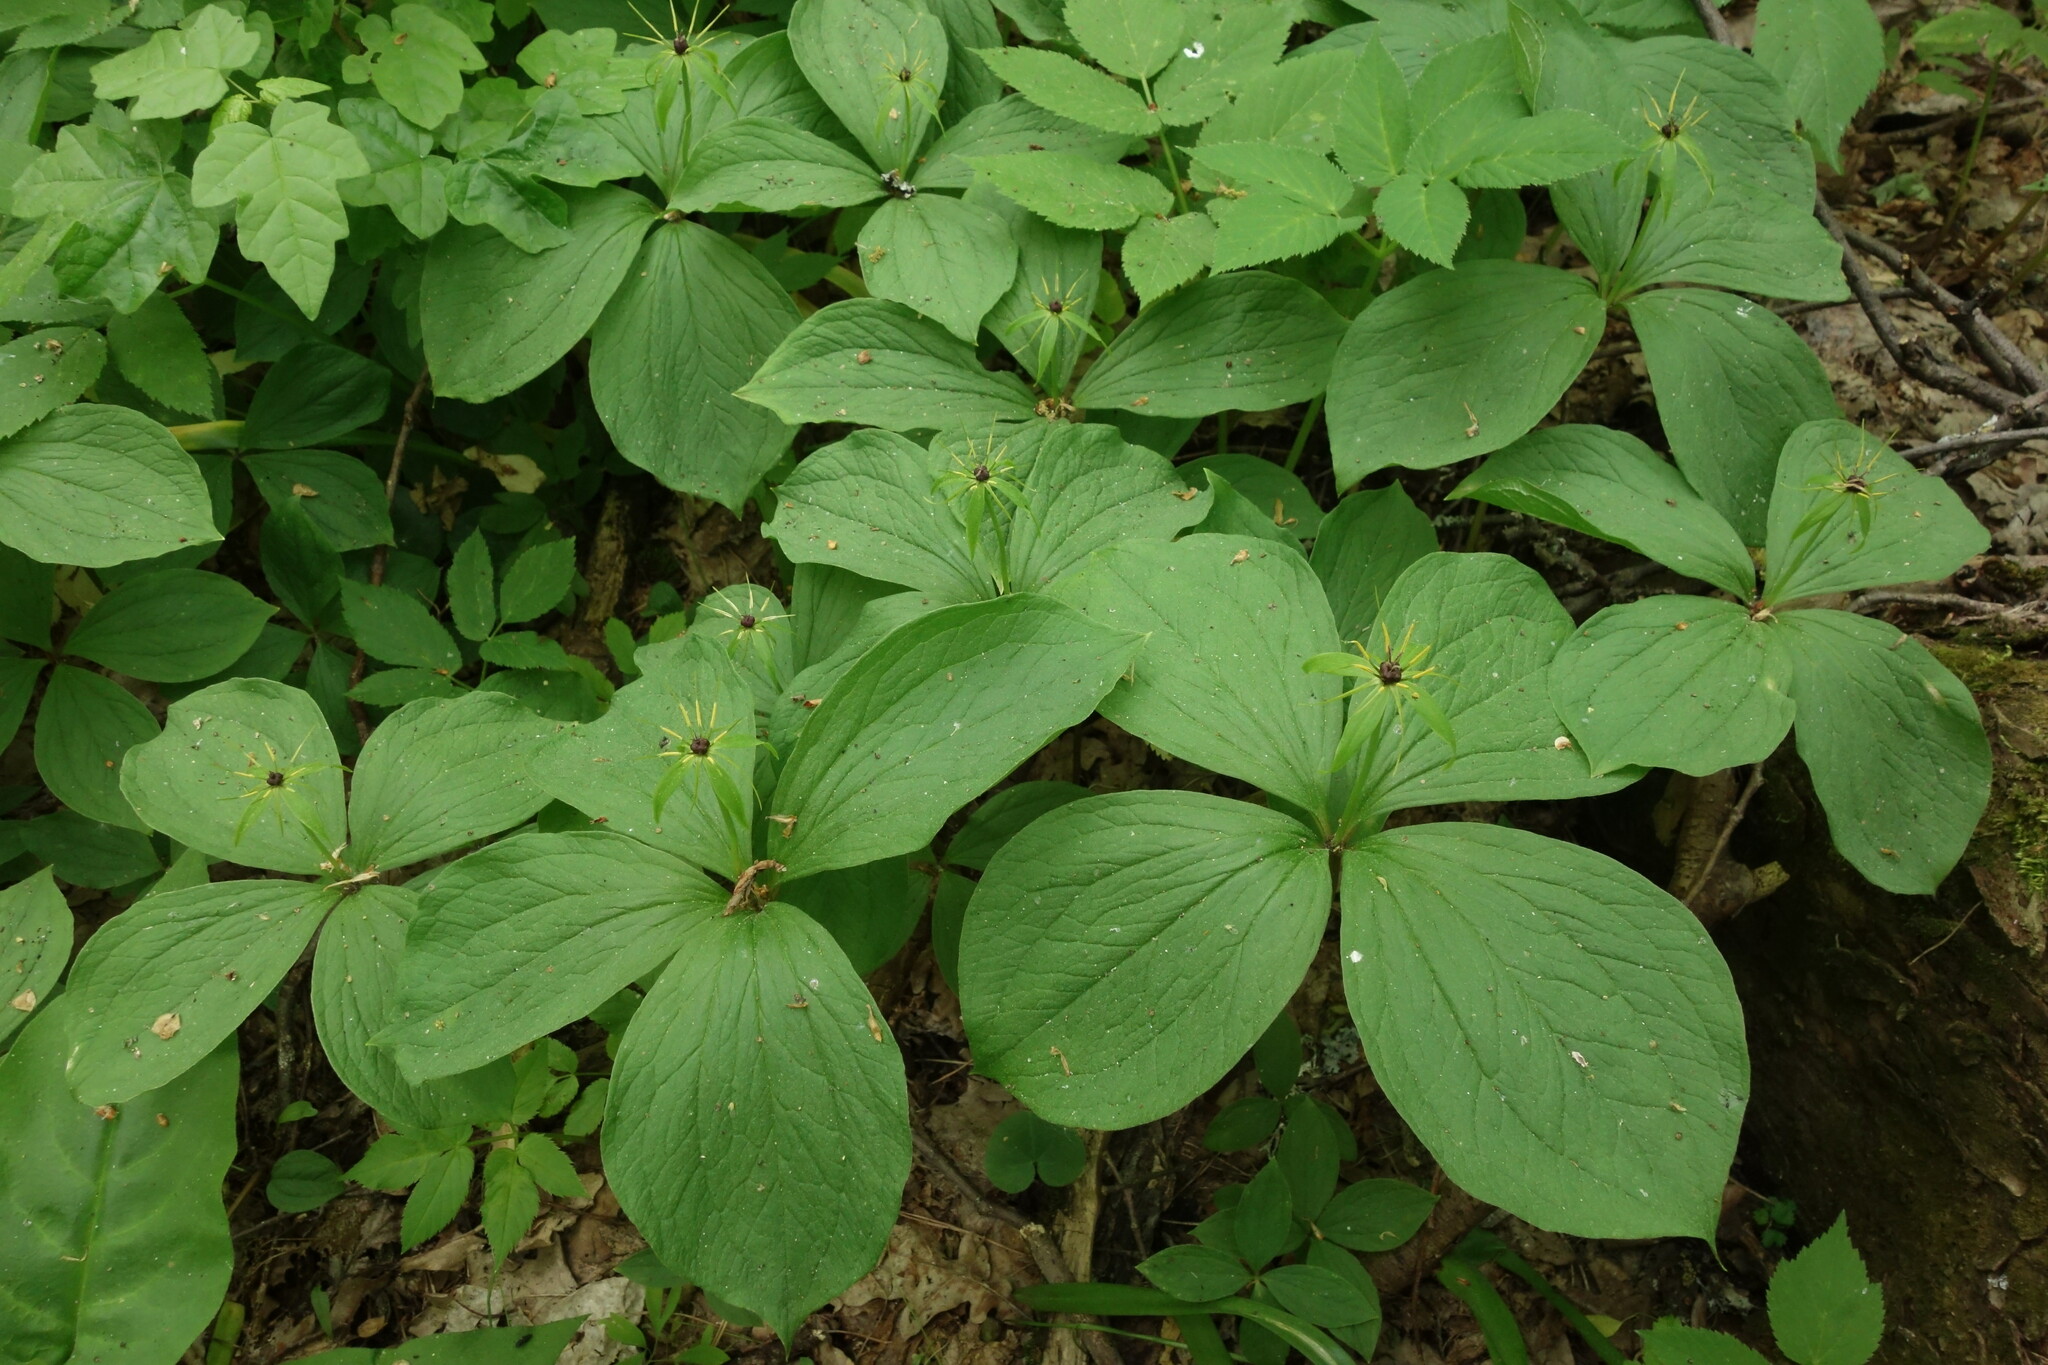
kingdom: Plantae
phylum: Tracheophyta
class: Liliopsida
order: Liliales
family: Melanthiaceae
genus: Paris
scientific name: Paris quadrifolia
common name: Herb-paris
